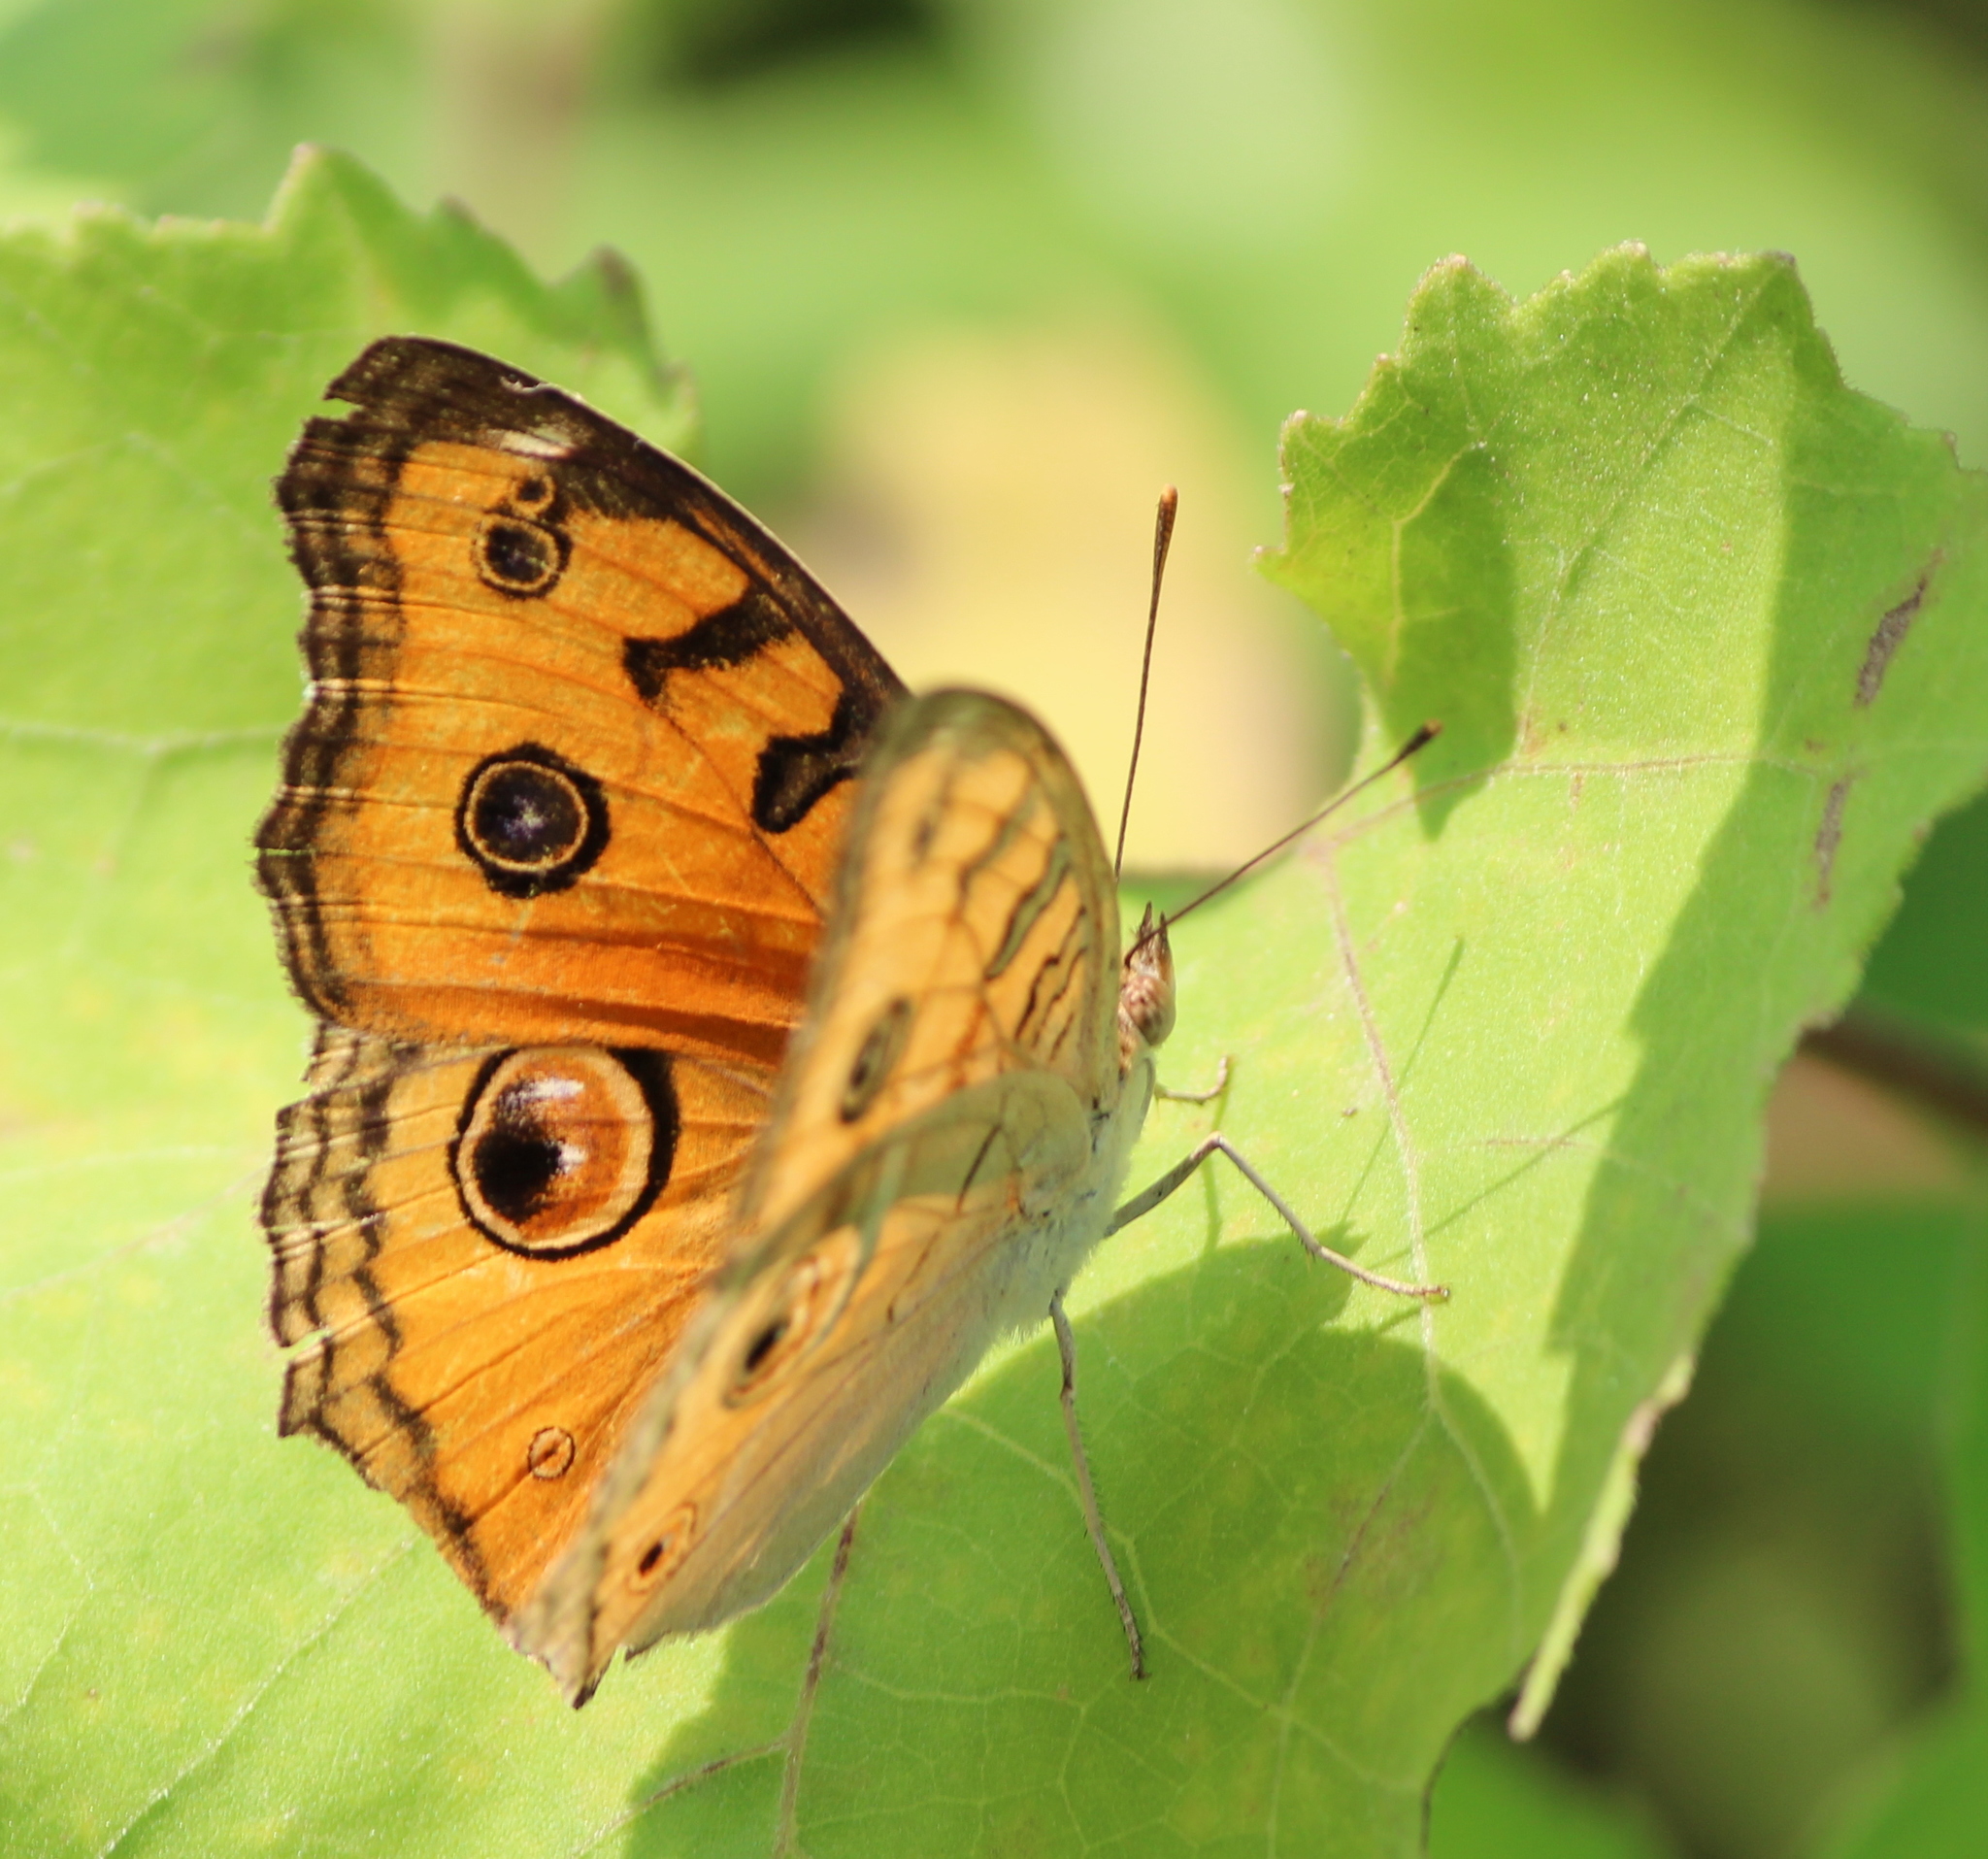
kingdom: Animalia
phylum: Arthropoda
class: Insecta
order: Lepidoptera
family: Nymphalidae
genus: Junonia
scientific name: Junonia almana
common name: Peacock pansy
